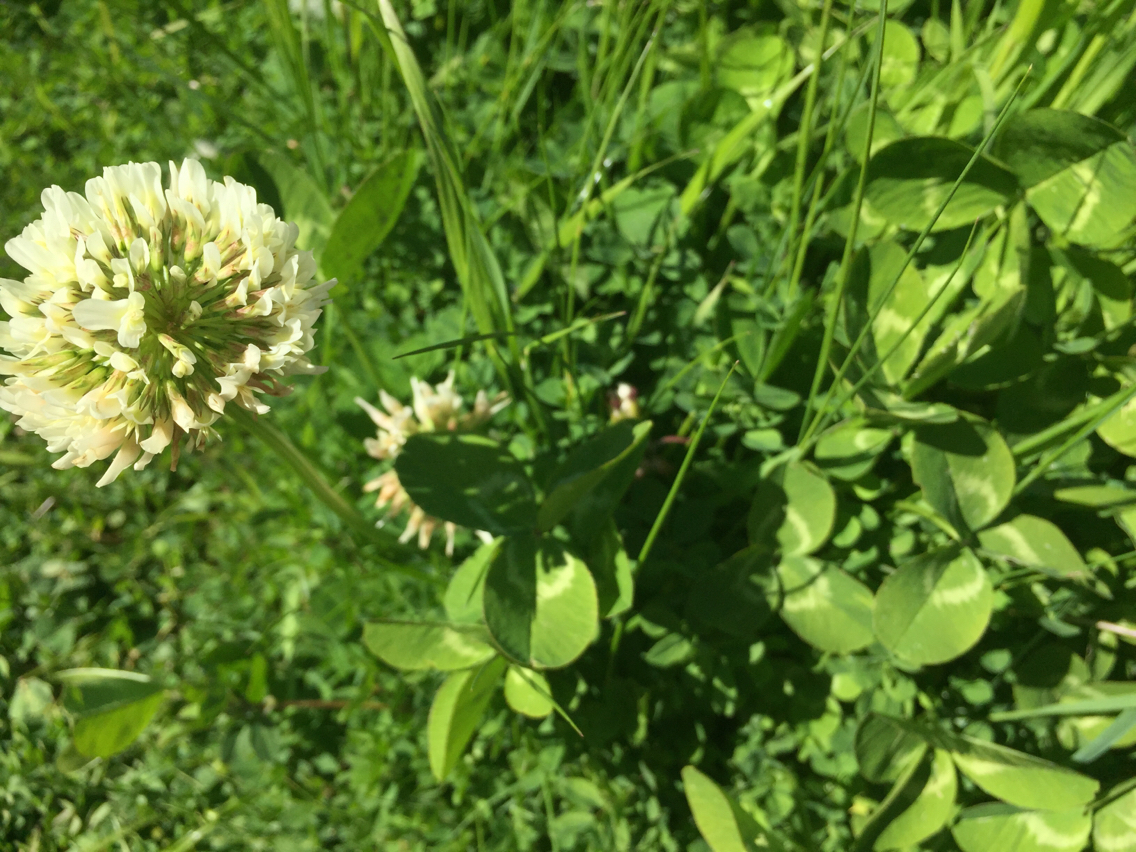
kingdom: Plantae
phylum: Tracheophyta
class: Magnoliopsida
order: Fabales
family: Fabaceae
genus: Trifolium
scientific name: Trifolium repens
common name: White clover
